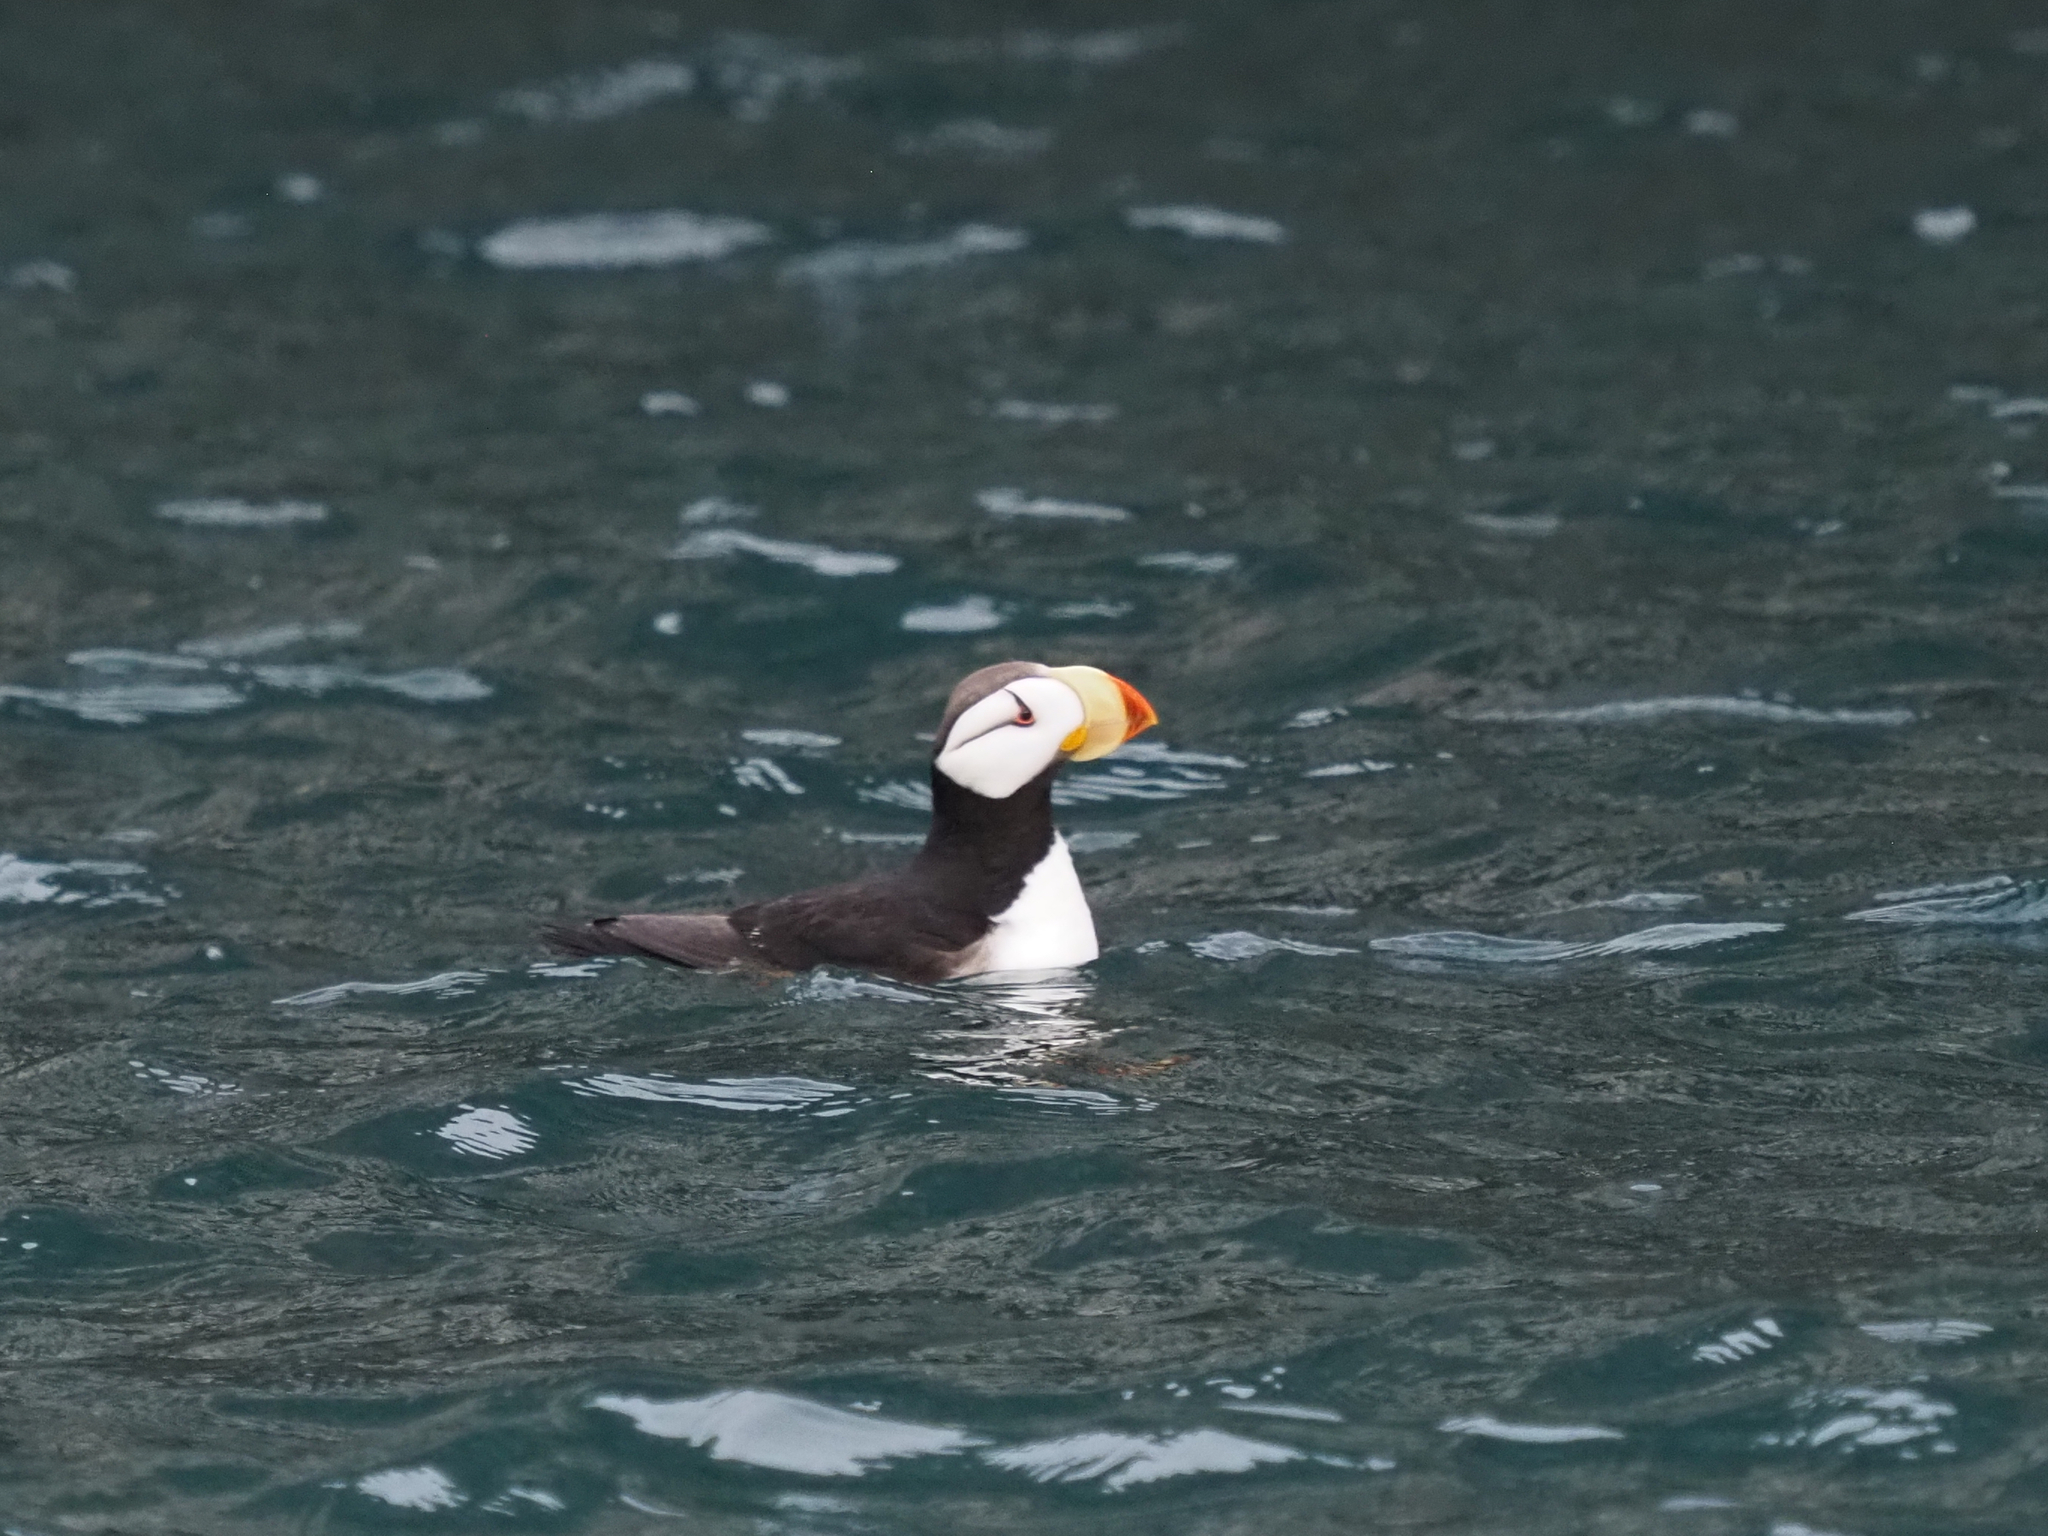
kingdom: Animalia
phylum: Chordata
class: Aves
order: Charadriiformes
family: Alcidae
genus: Fratercula
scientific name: Fratercula corniculata
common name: Horned puffin
